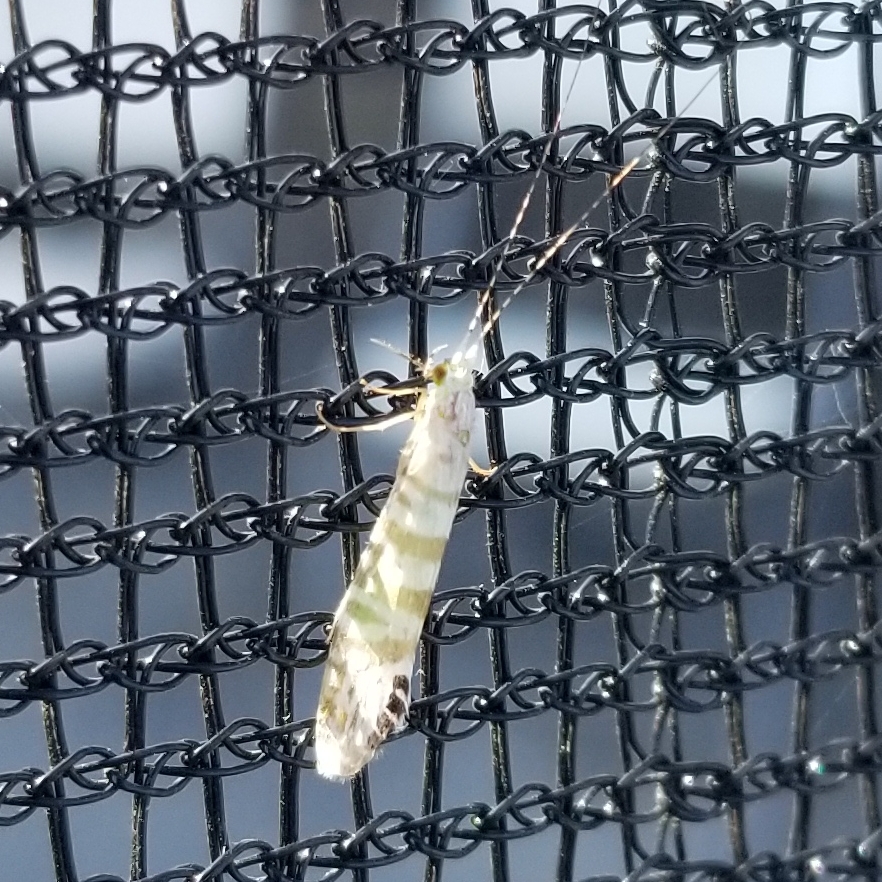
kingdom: Animalia
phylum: Arthropoda
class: Insecta
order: Trichoptera
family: Leptoceridae
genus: Nectopsyche
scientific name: Nectopsyche exquisita
